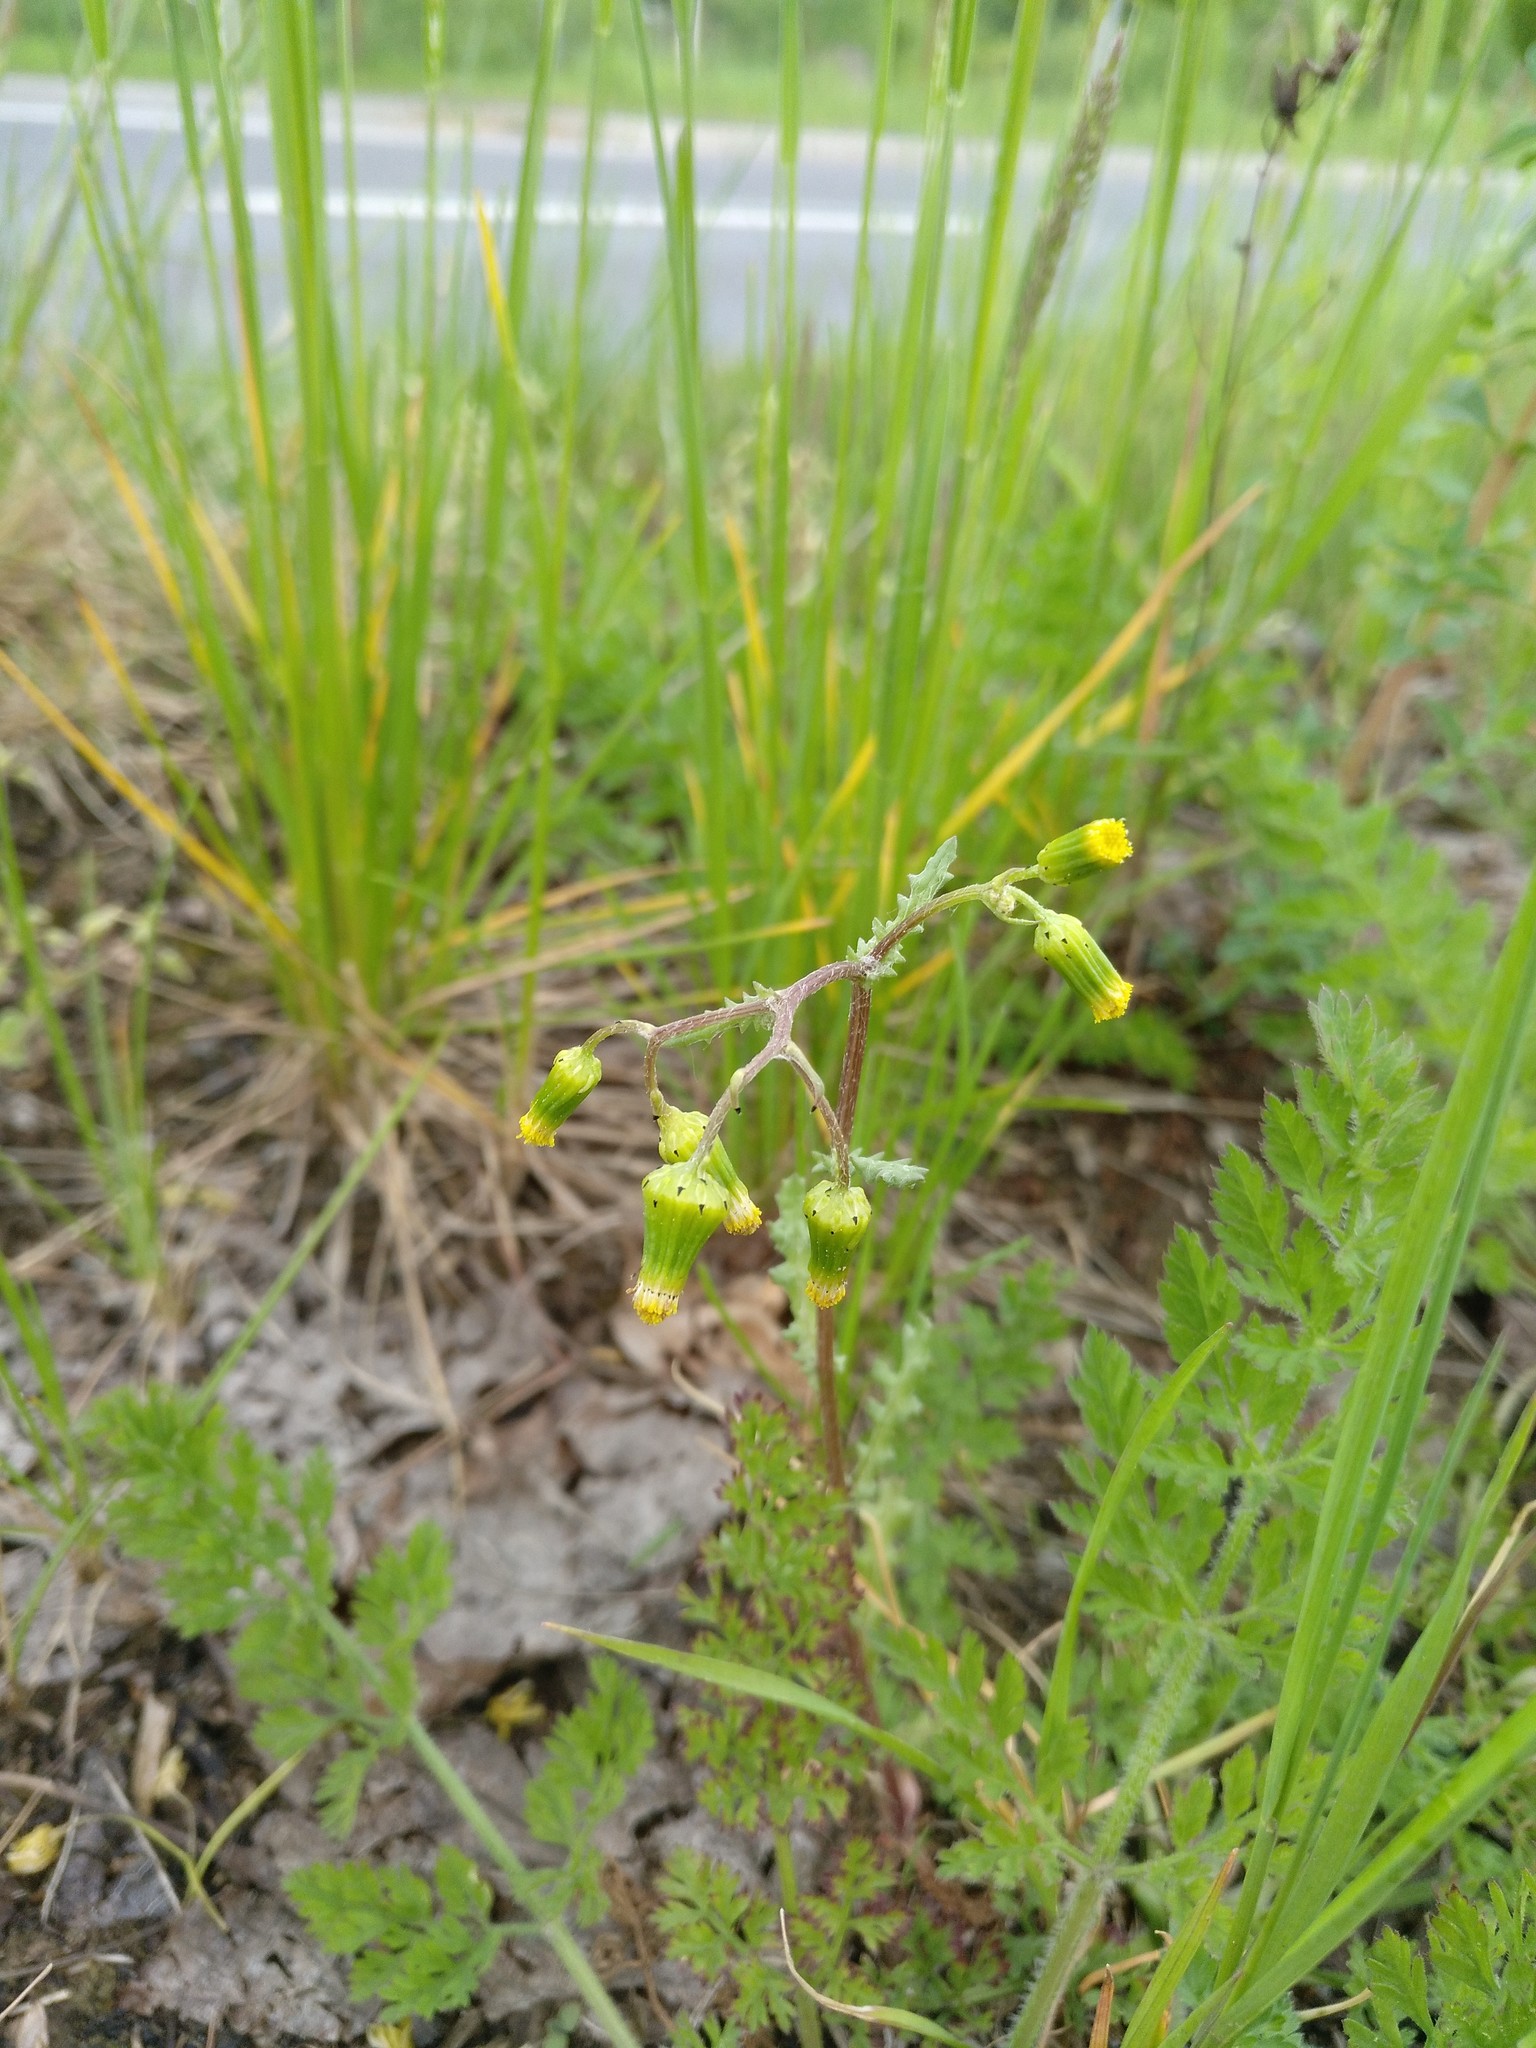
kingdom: Plantae
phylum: Tracheophyta
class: Magnoliopsida
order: Asterales
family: Asteraceae
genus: Senecio
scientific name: Senecio vulgaris
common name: Old-man-in-the-spring
